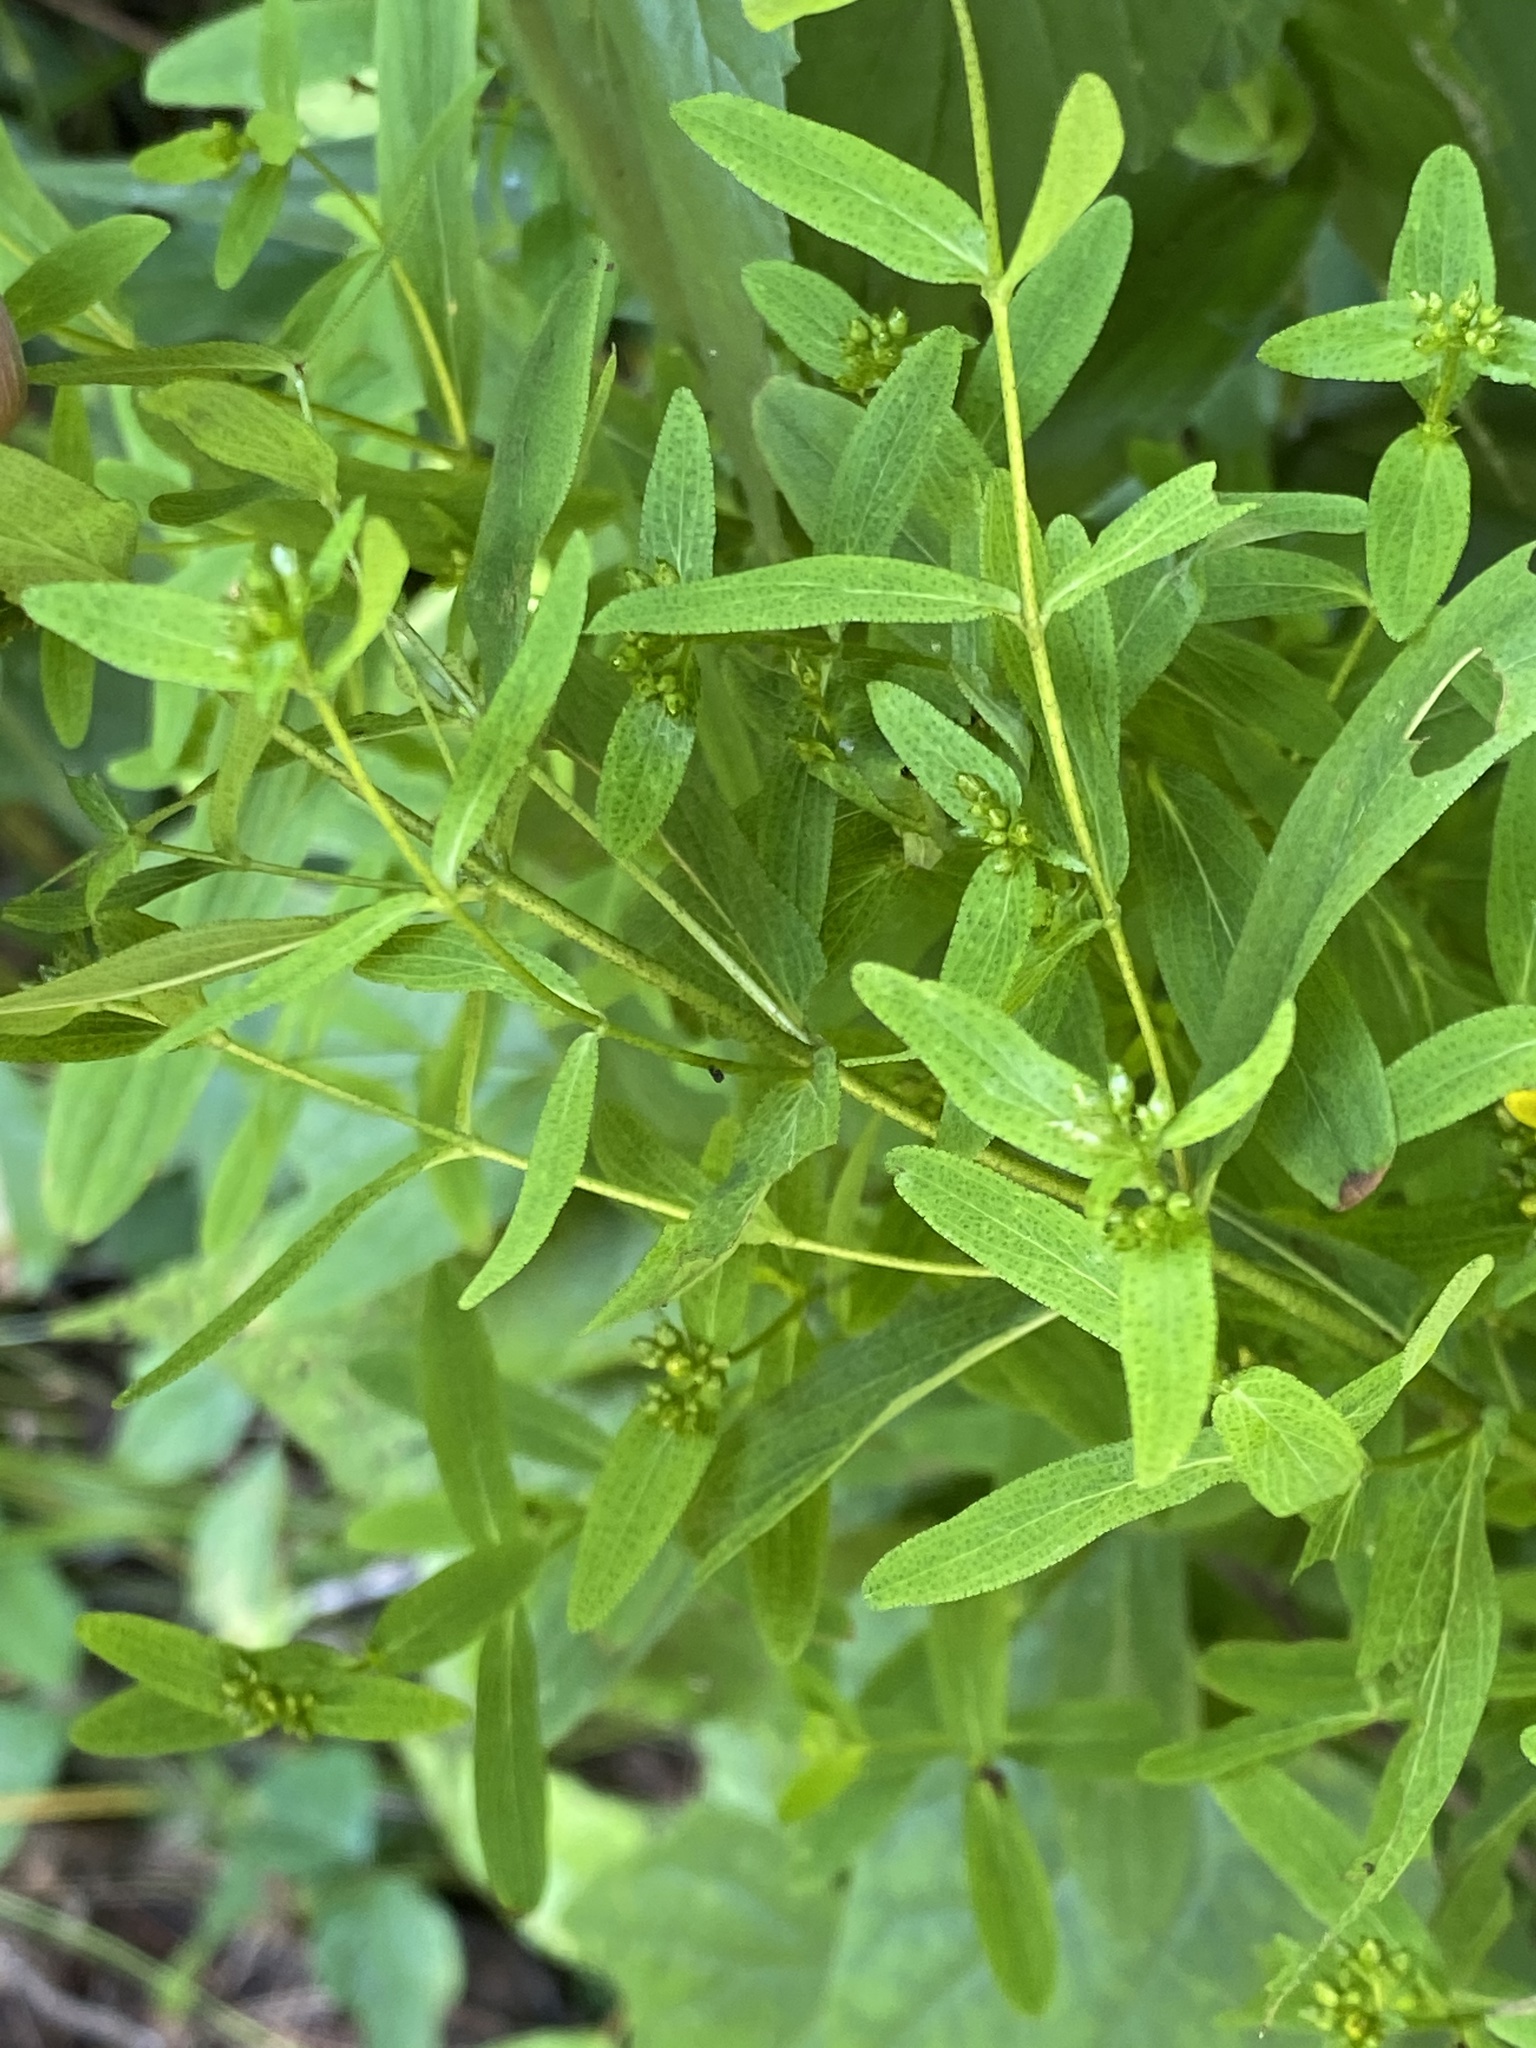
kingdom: Plantae
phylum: Tracheophyta
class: Magnoliopsida
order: Malpighiales
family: Hypericaceae
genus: Hypericum
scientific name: Hypericum punctatum
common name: Spotted st. john's-wort
